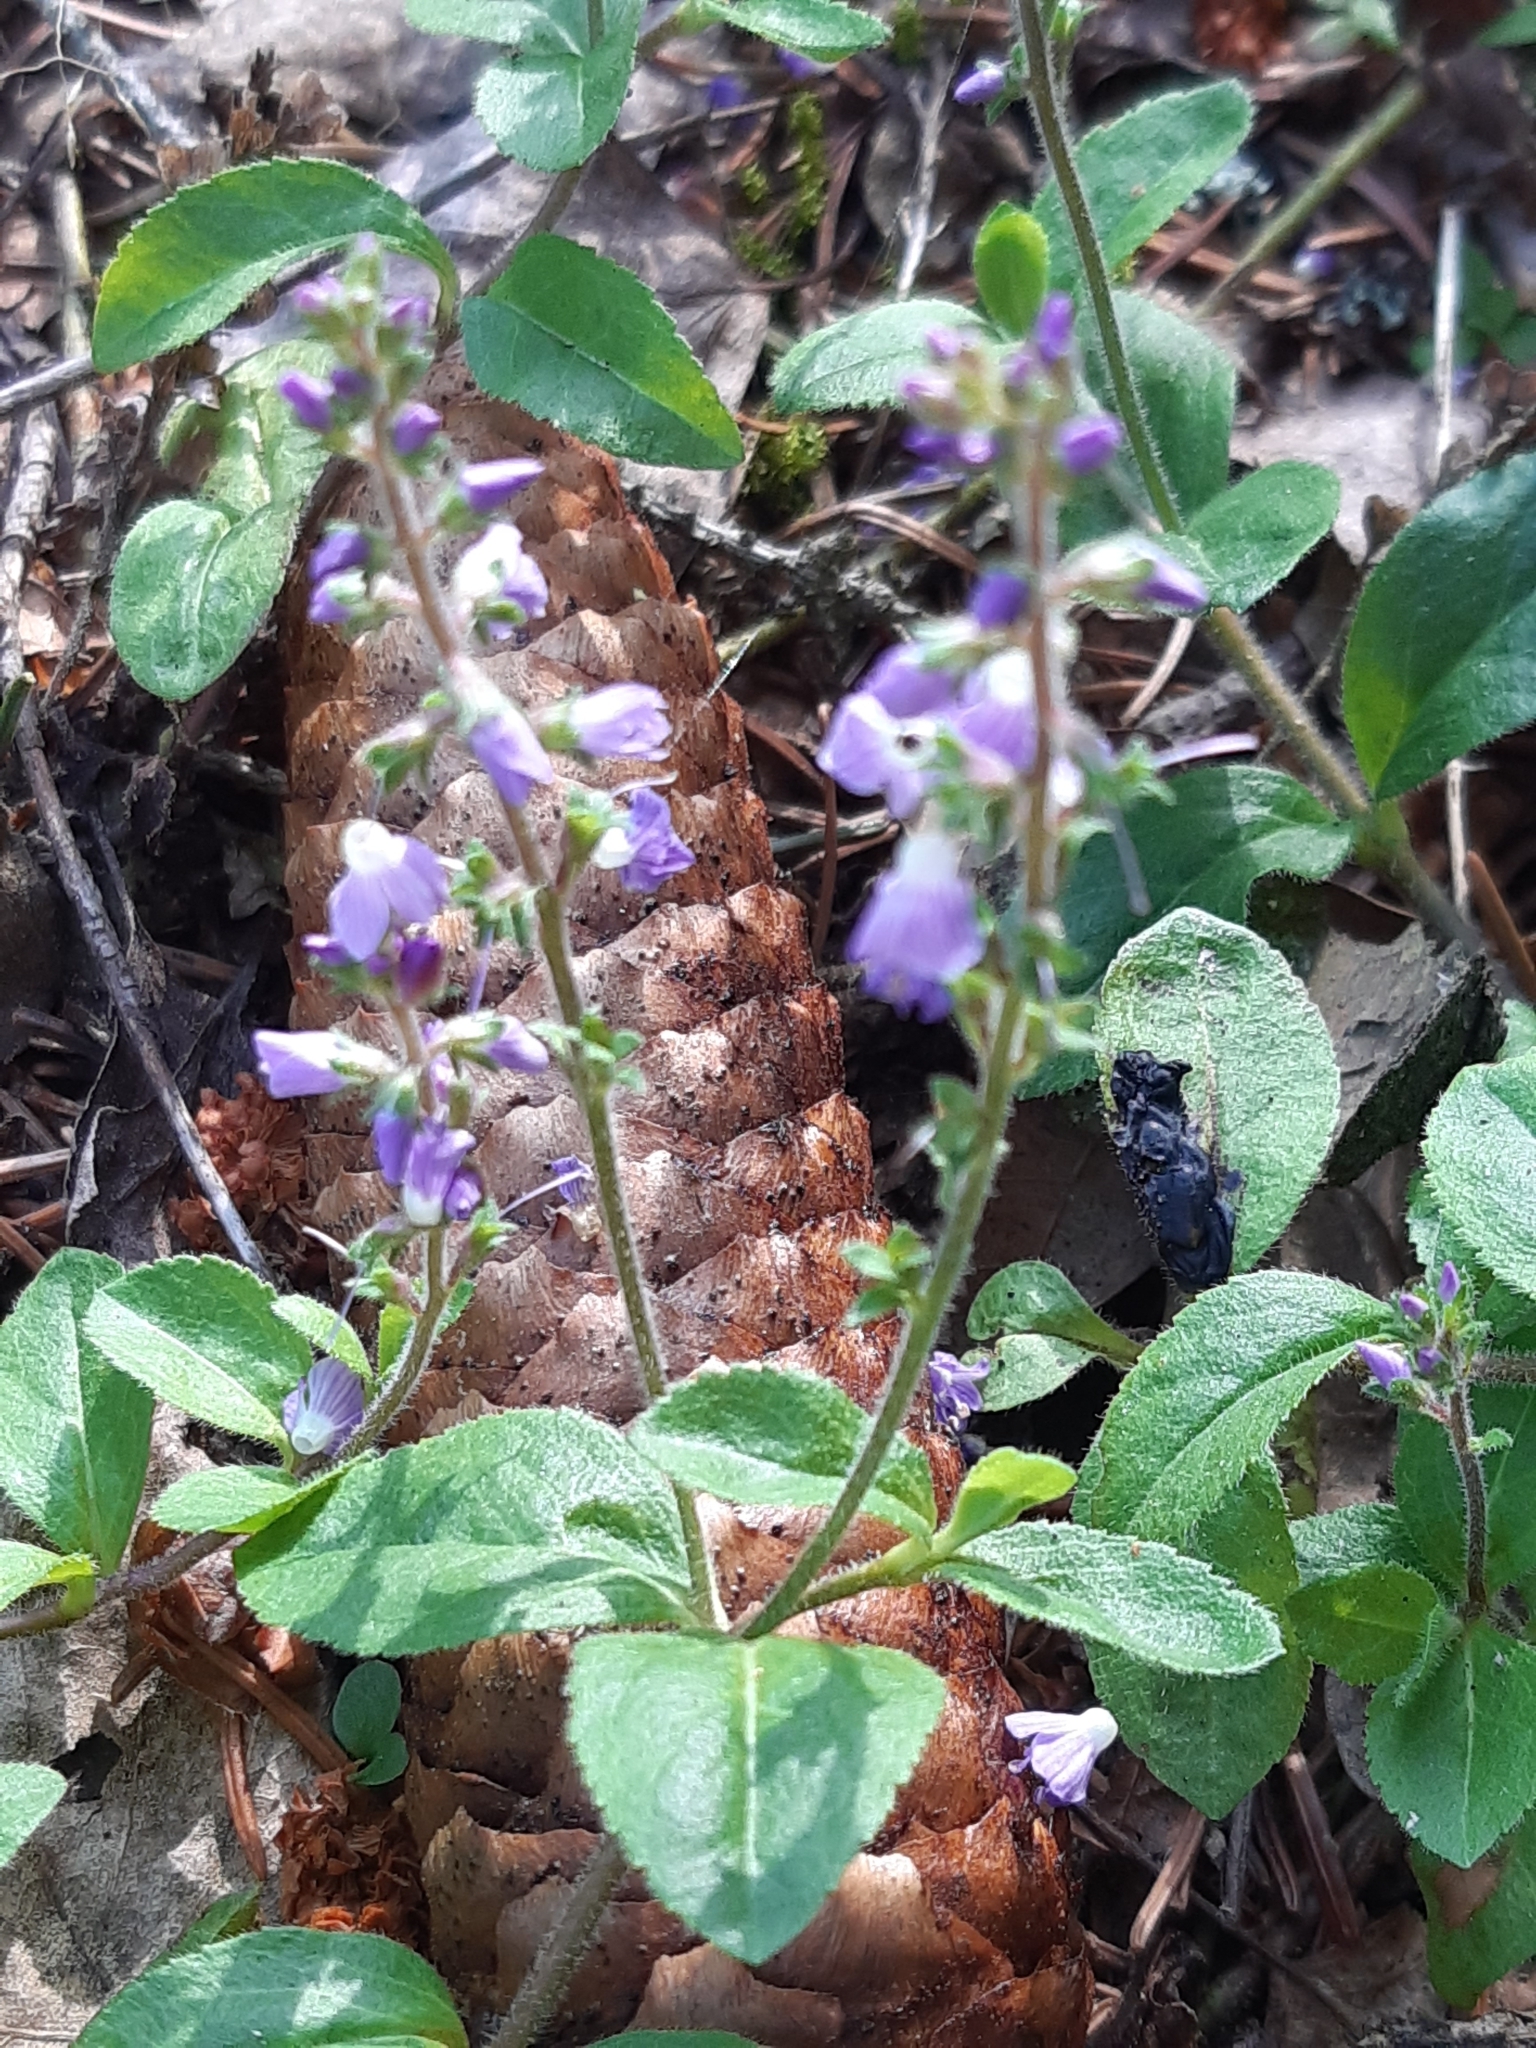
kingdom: Plantae
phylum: Tracheophyta
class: Magnoliopsida
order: Lamiales
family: Plantaginaceae
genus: Veronica
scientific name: Veronica officinalis
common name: Common speedwell
